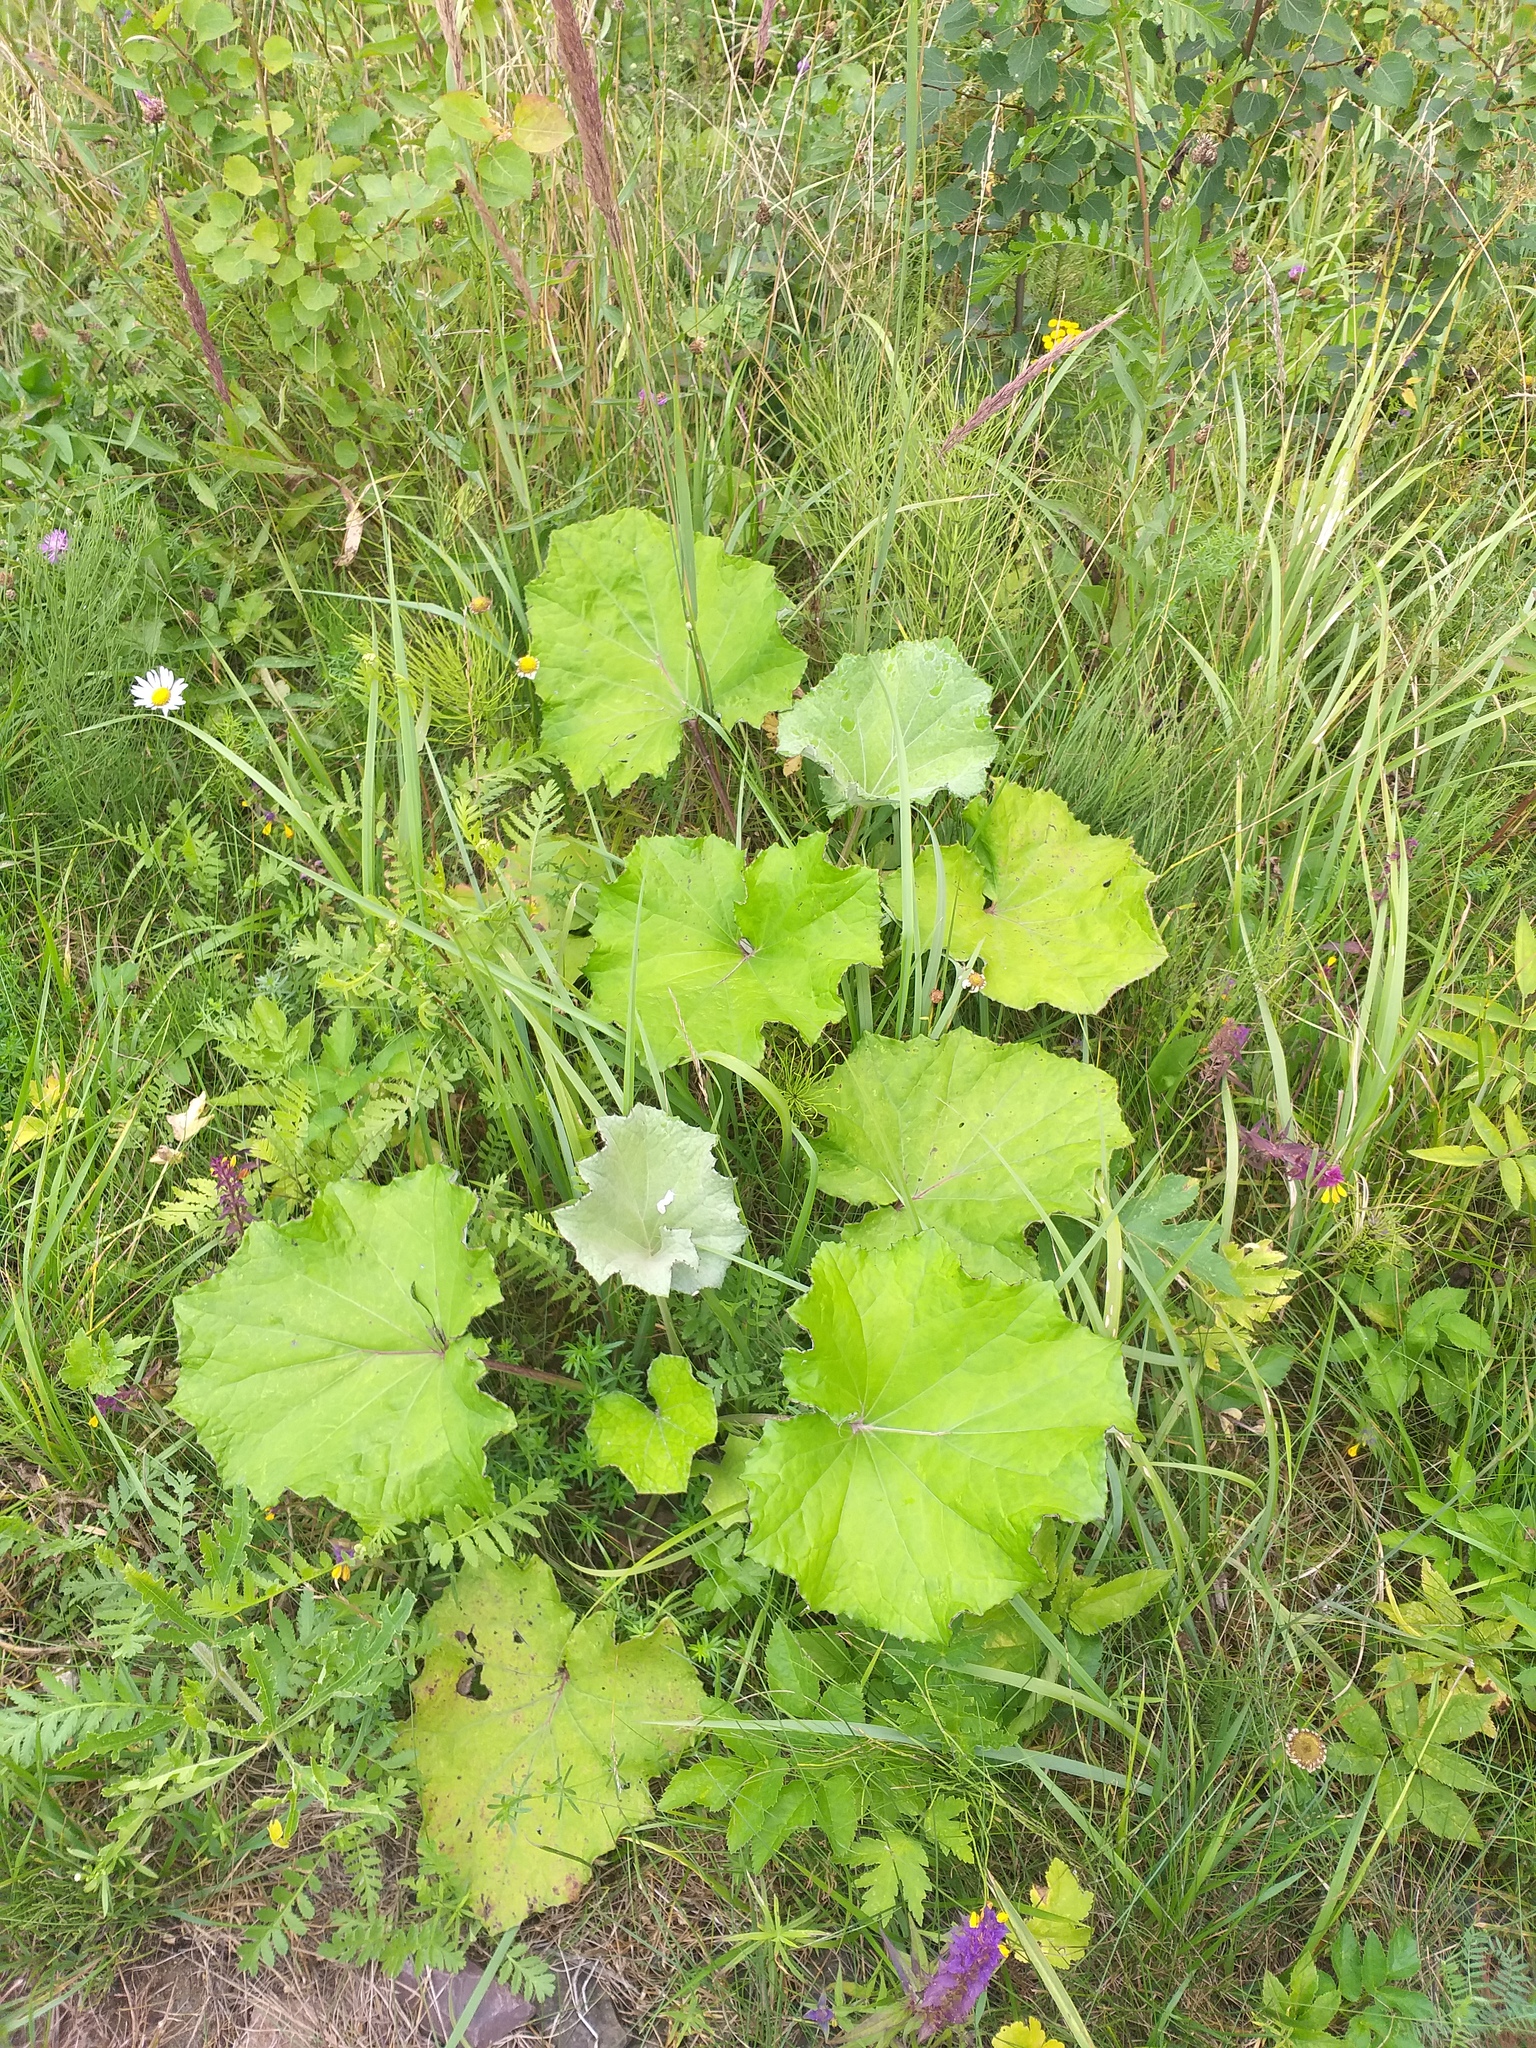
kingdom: Plantae
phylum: Tracheophyta
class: Magnoliopsida
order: Asterales
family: Asteraceae
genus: Tussilago
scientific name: Tussilago farfara
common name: Coltsfoot
